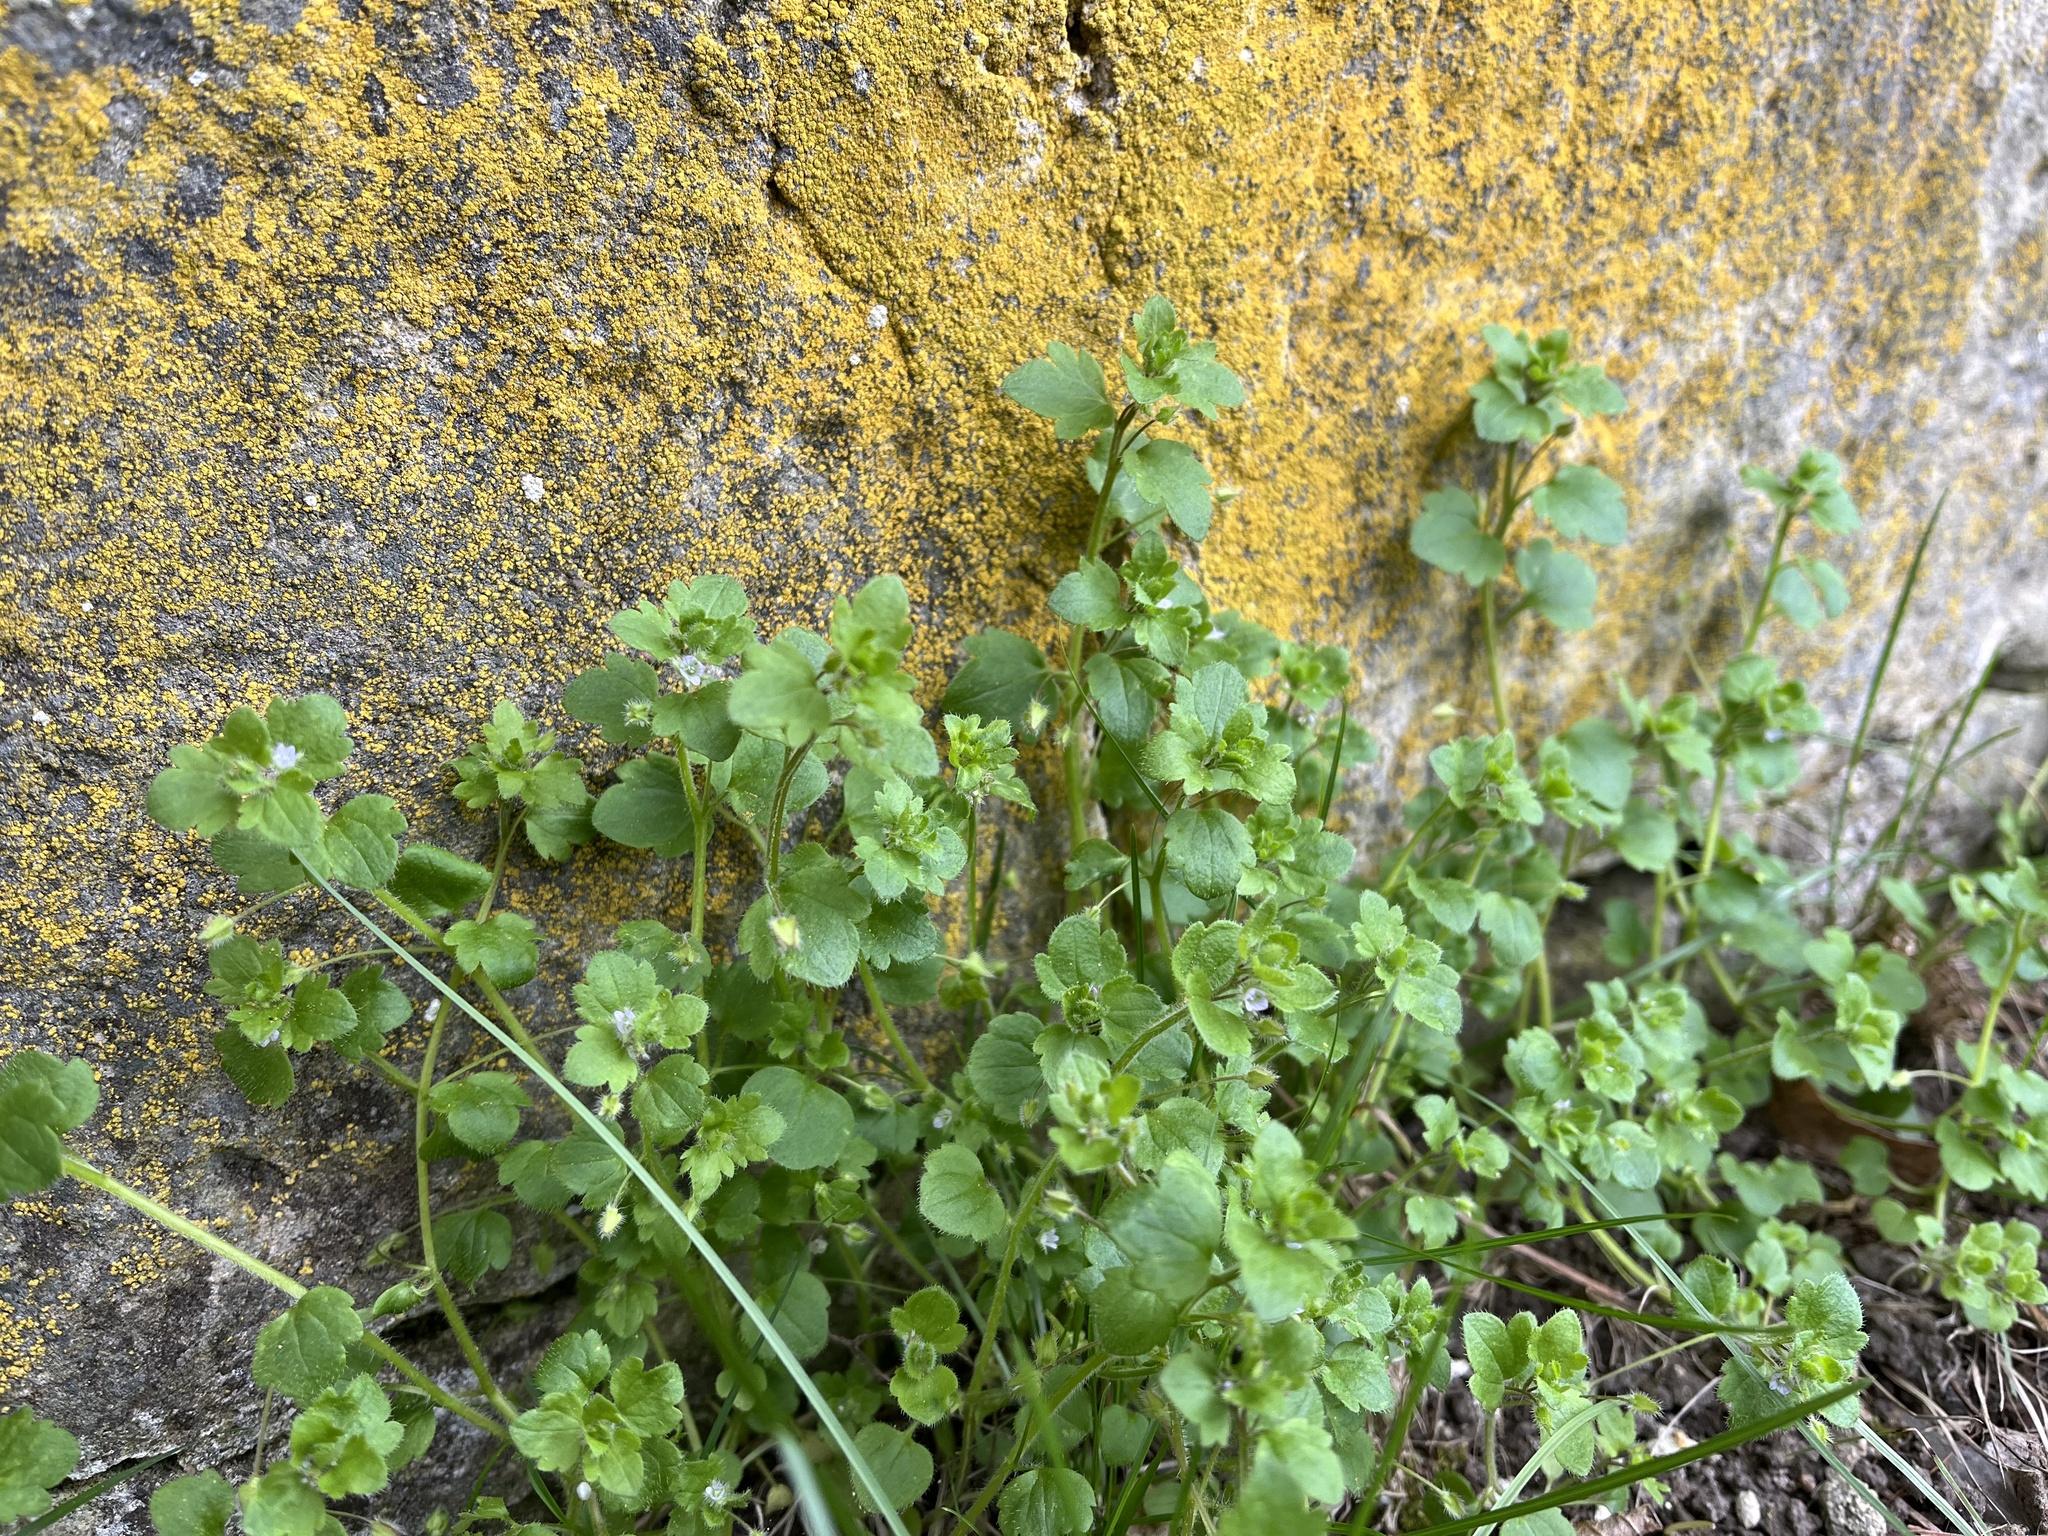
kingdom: Plantae
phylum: Tracheophyta
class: Magnoliopsida
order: Lamiales
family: Plantaginaceae
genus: Veronica
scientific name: Veronica sublobata
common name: False ivy-leaved speedwell
